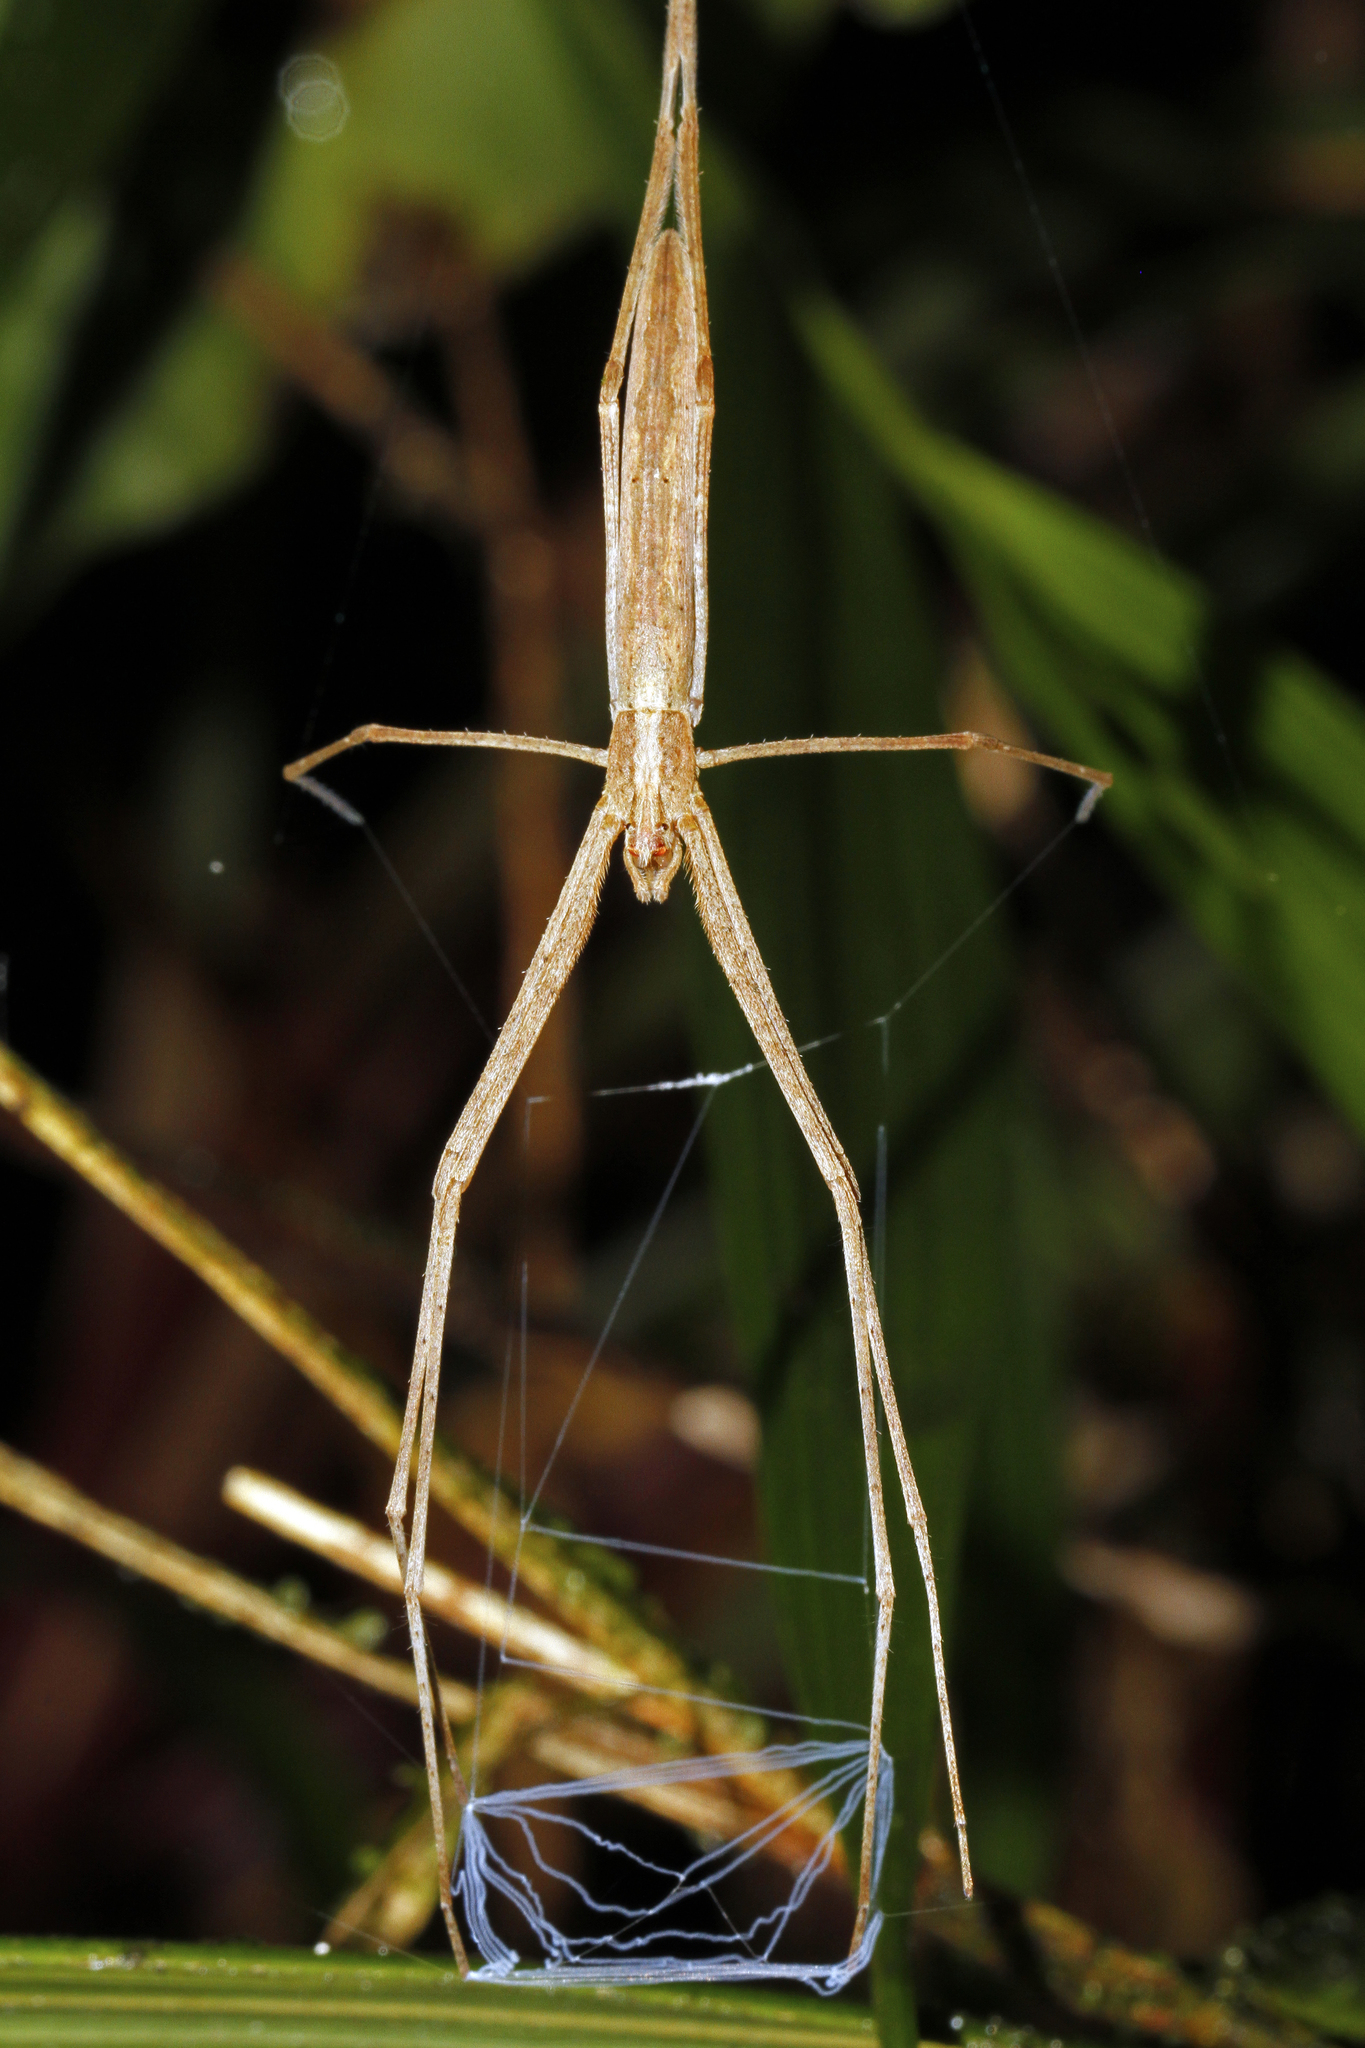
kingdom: Animalia
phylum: Arthropoda
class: Arachnida
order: Araneae
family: Deinopidae
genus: Deinopis
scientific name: Deinopis longipes
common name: Ogre faced spiders
